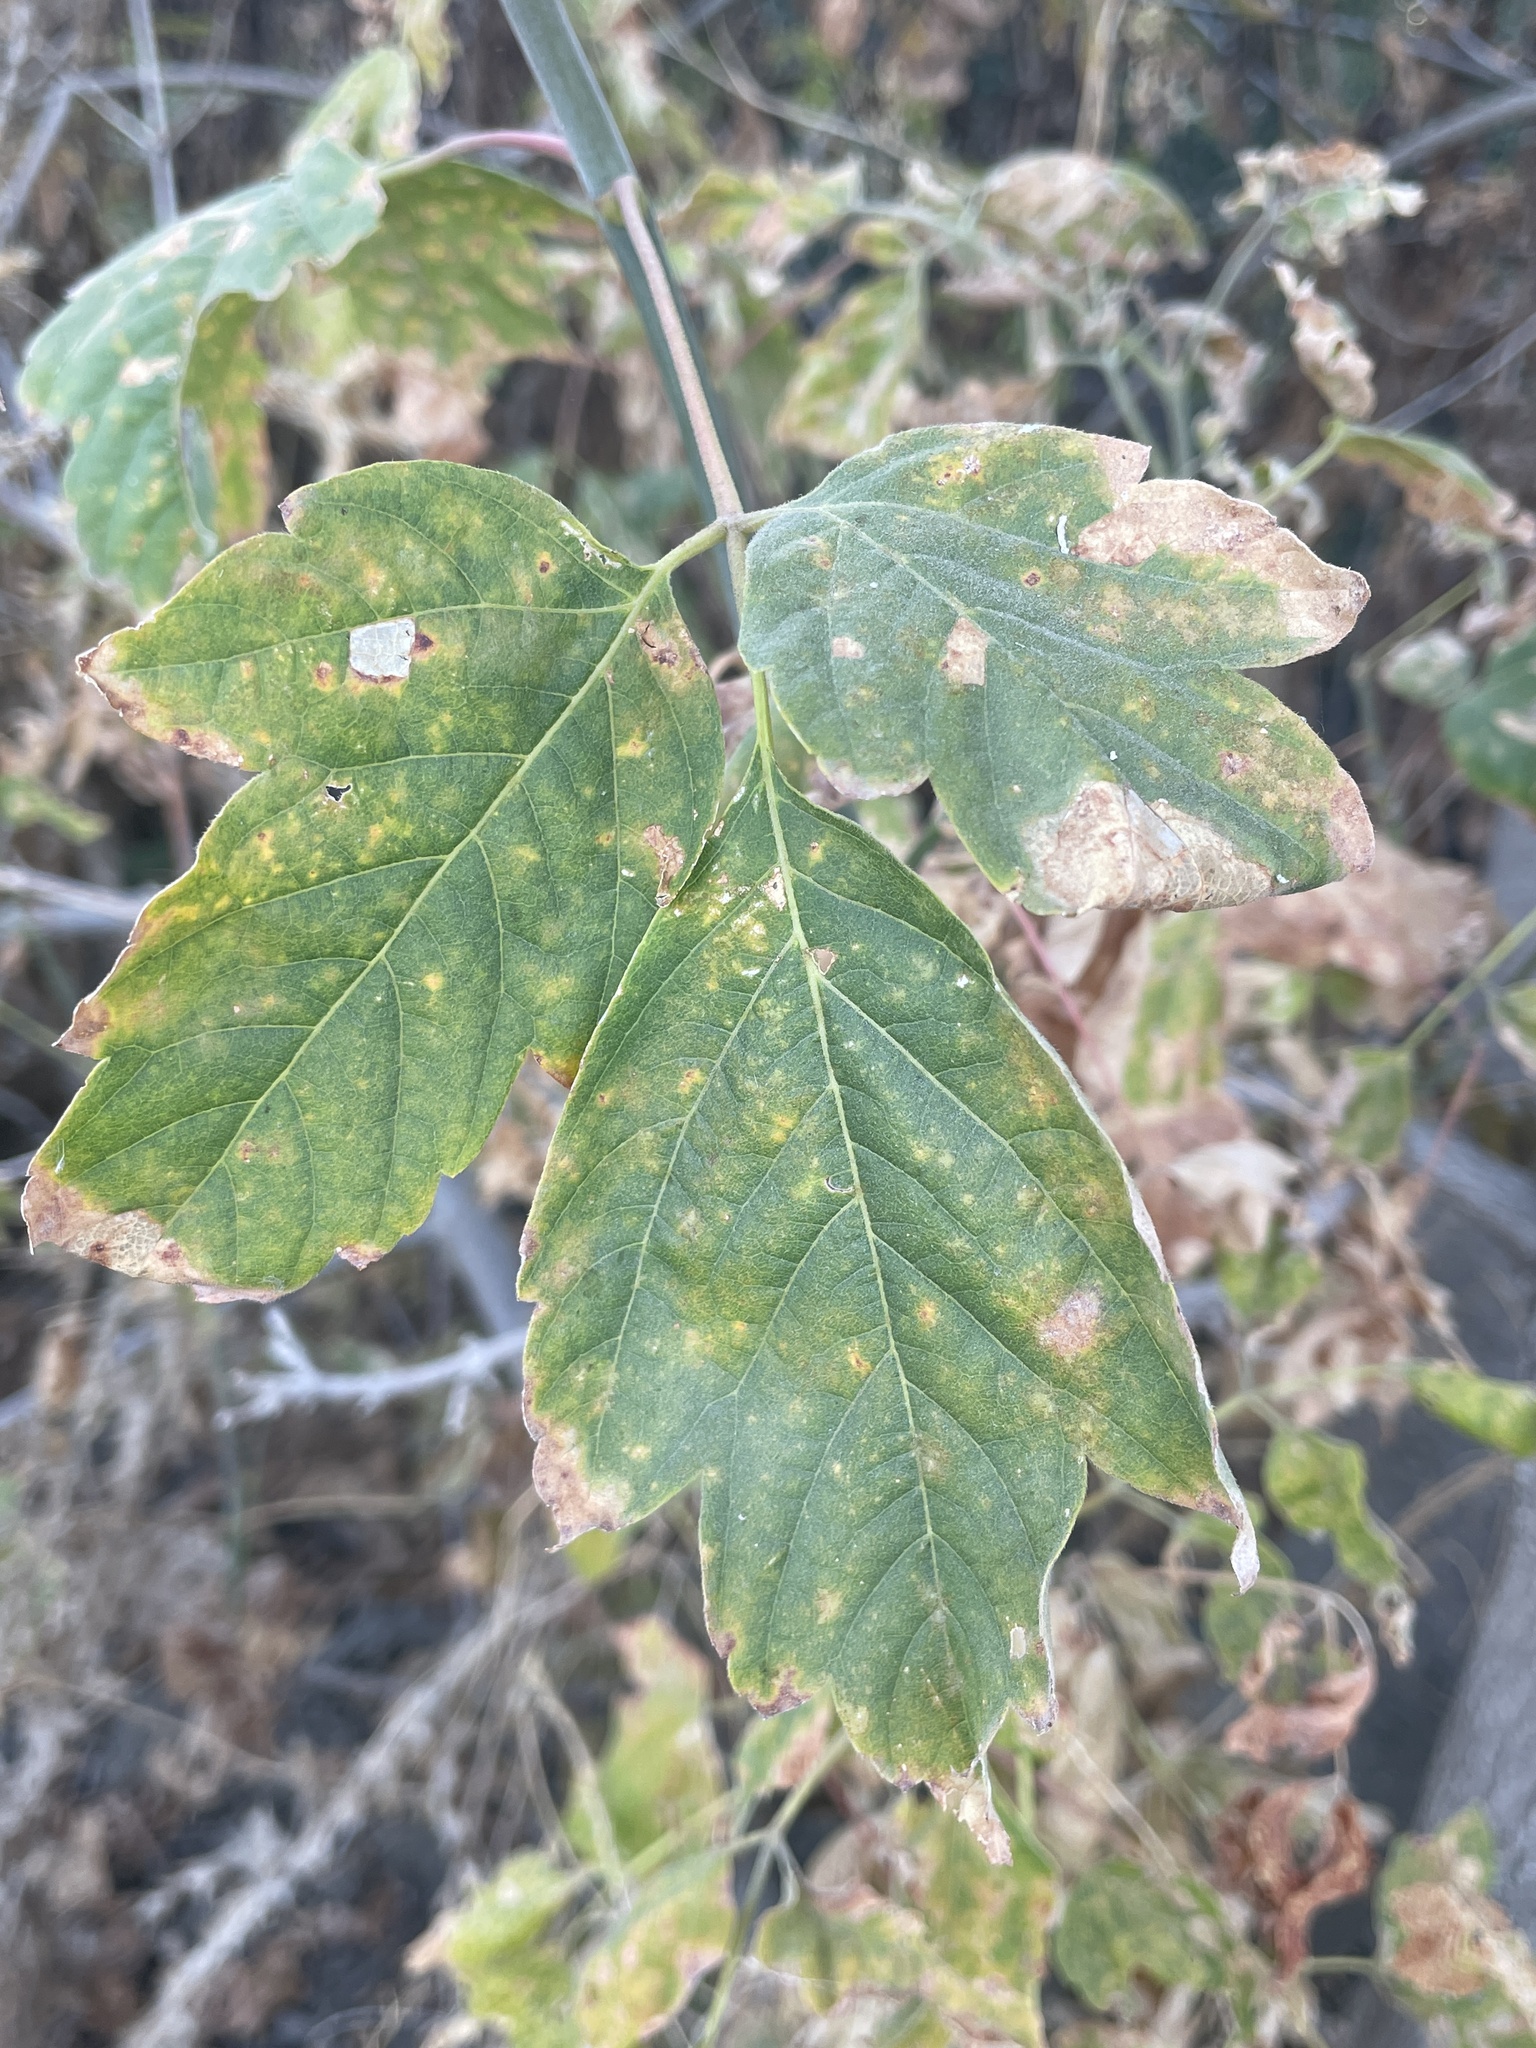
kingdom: Plantae
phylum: Tracheophyta
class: Magnoliopsida
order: Sapindales
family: Sapindaceae
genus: Acer
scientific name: Acer negundo
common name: Ashleaf maple
